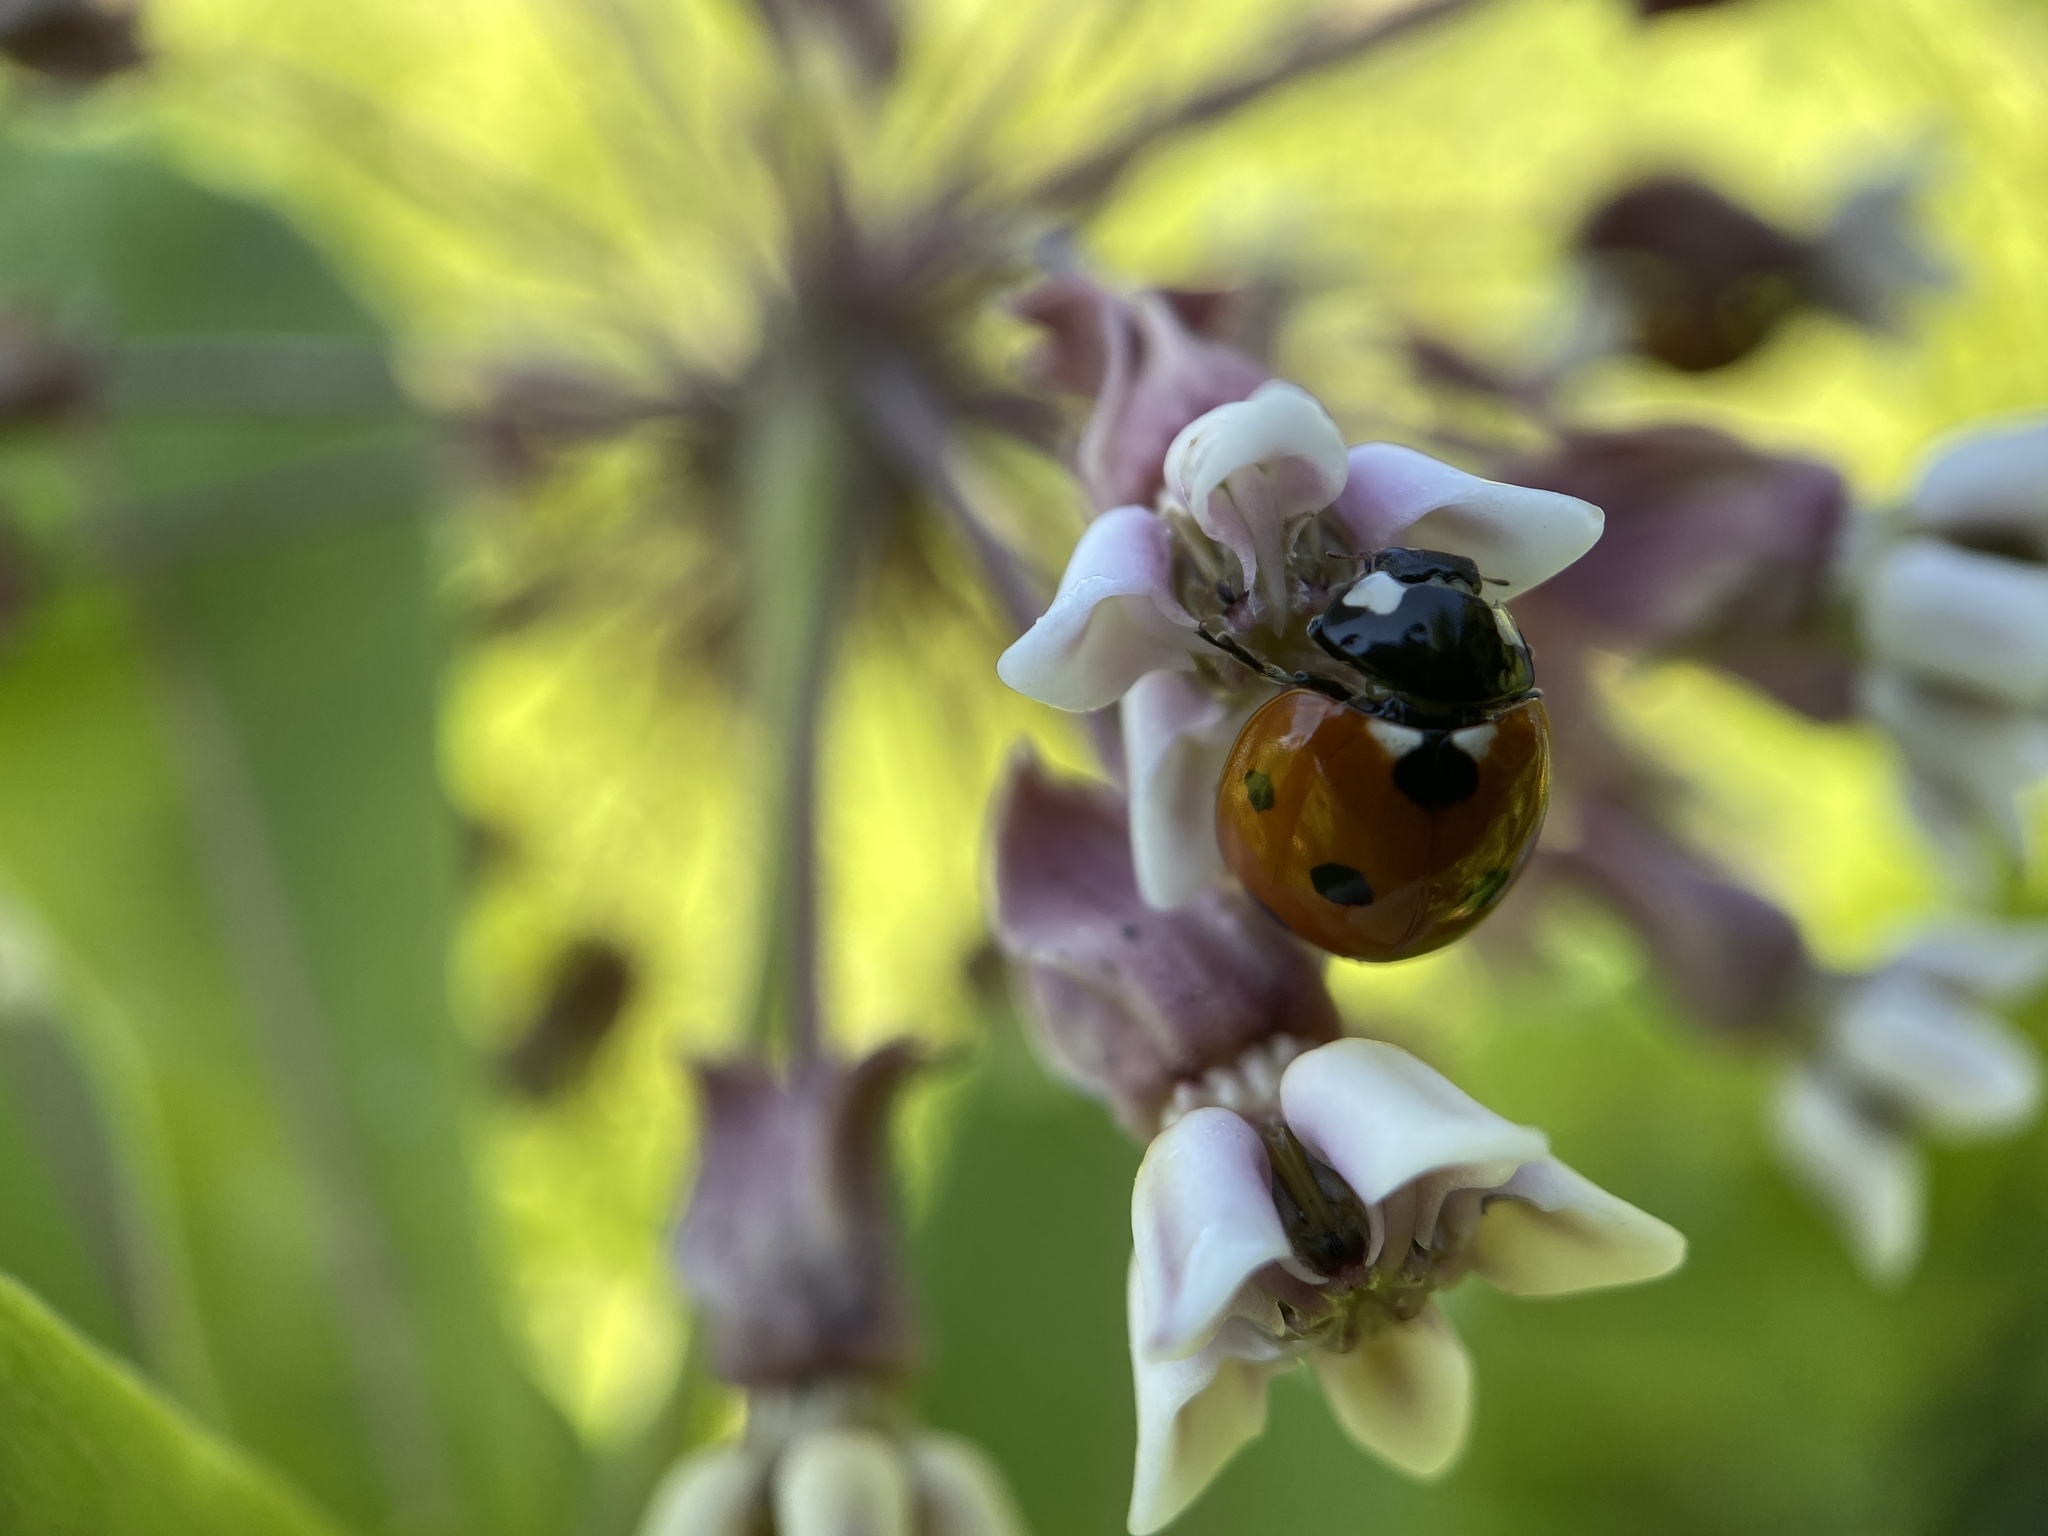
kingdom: Animalia
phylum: Arthropoda
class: Insecta
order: Coleoptera
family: Coccinellidae
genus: Coccinella
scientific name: Coccinella septempunctata
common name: Sevenspotted lady beetle
